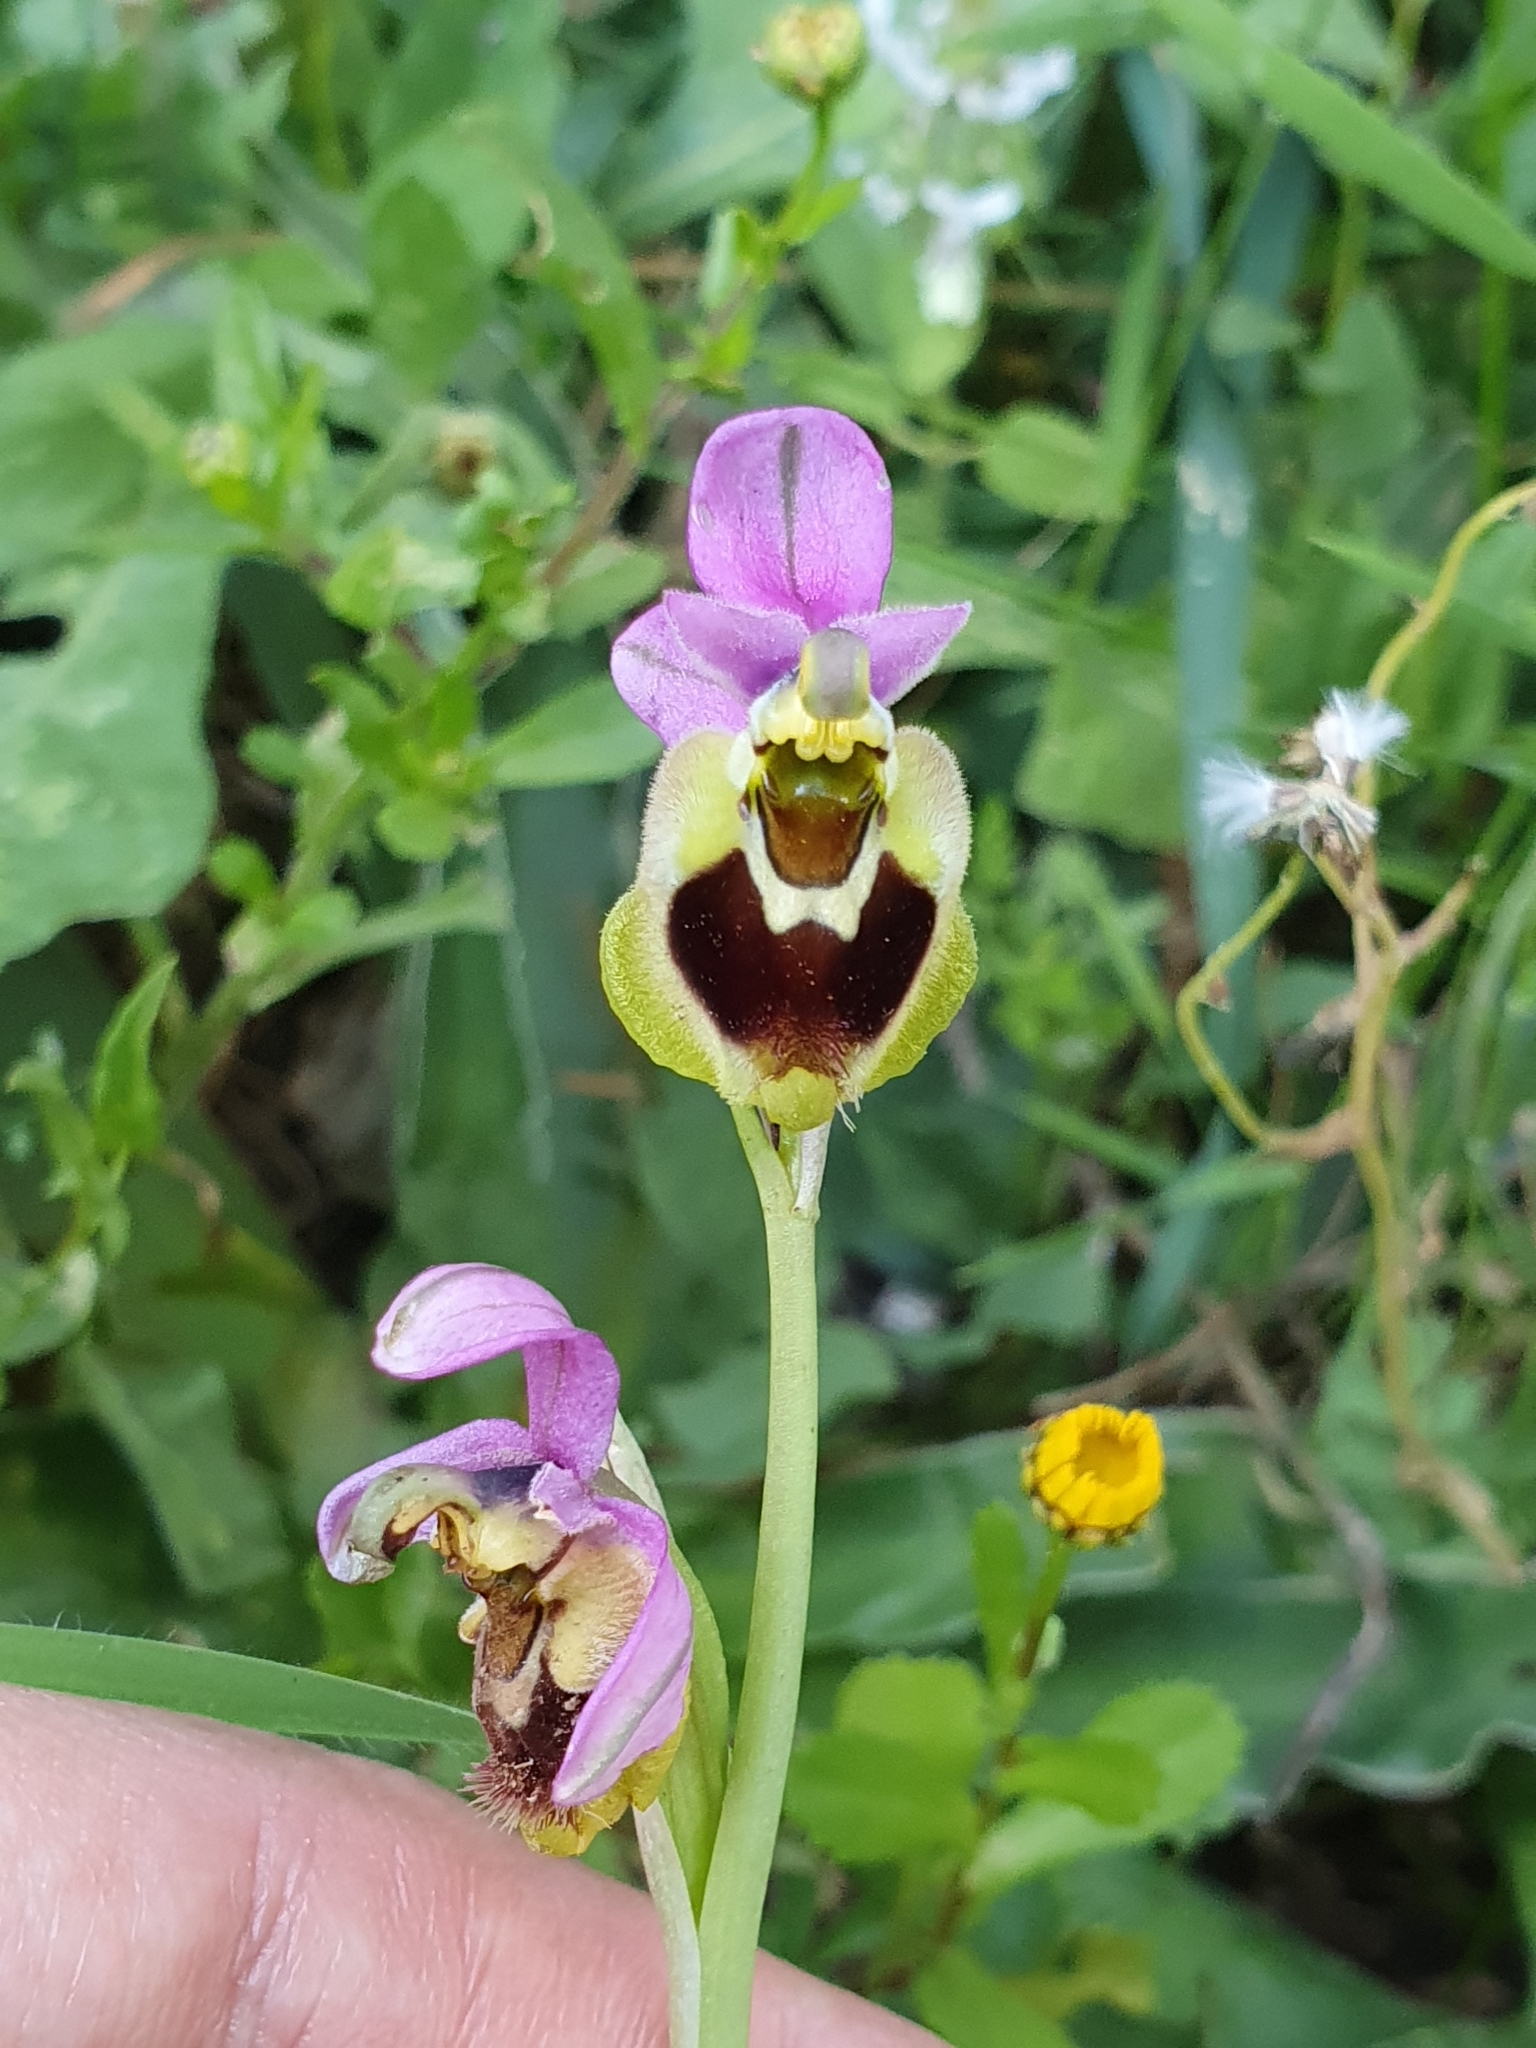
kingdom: Plantae
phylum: Tracheophyta
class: Liliopsida
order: Asparagales
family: Orchidaceae
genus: Ophrys
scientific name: Ophrys tenthredinifera
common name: Sawfly orchid
